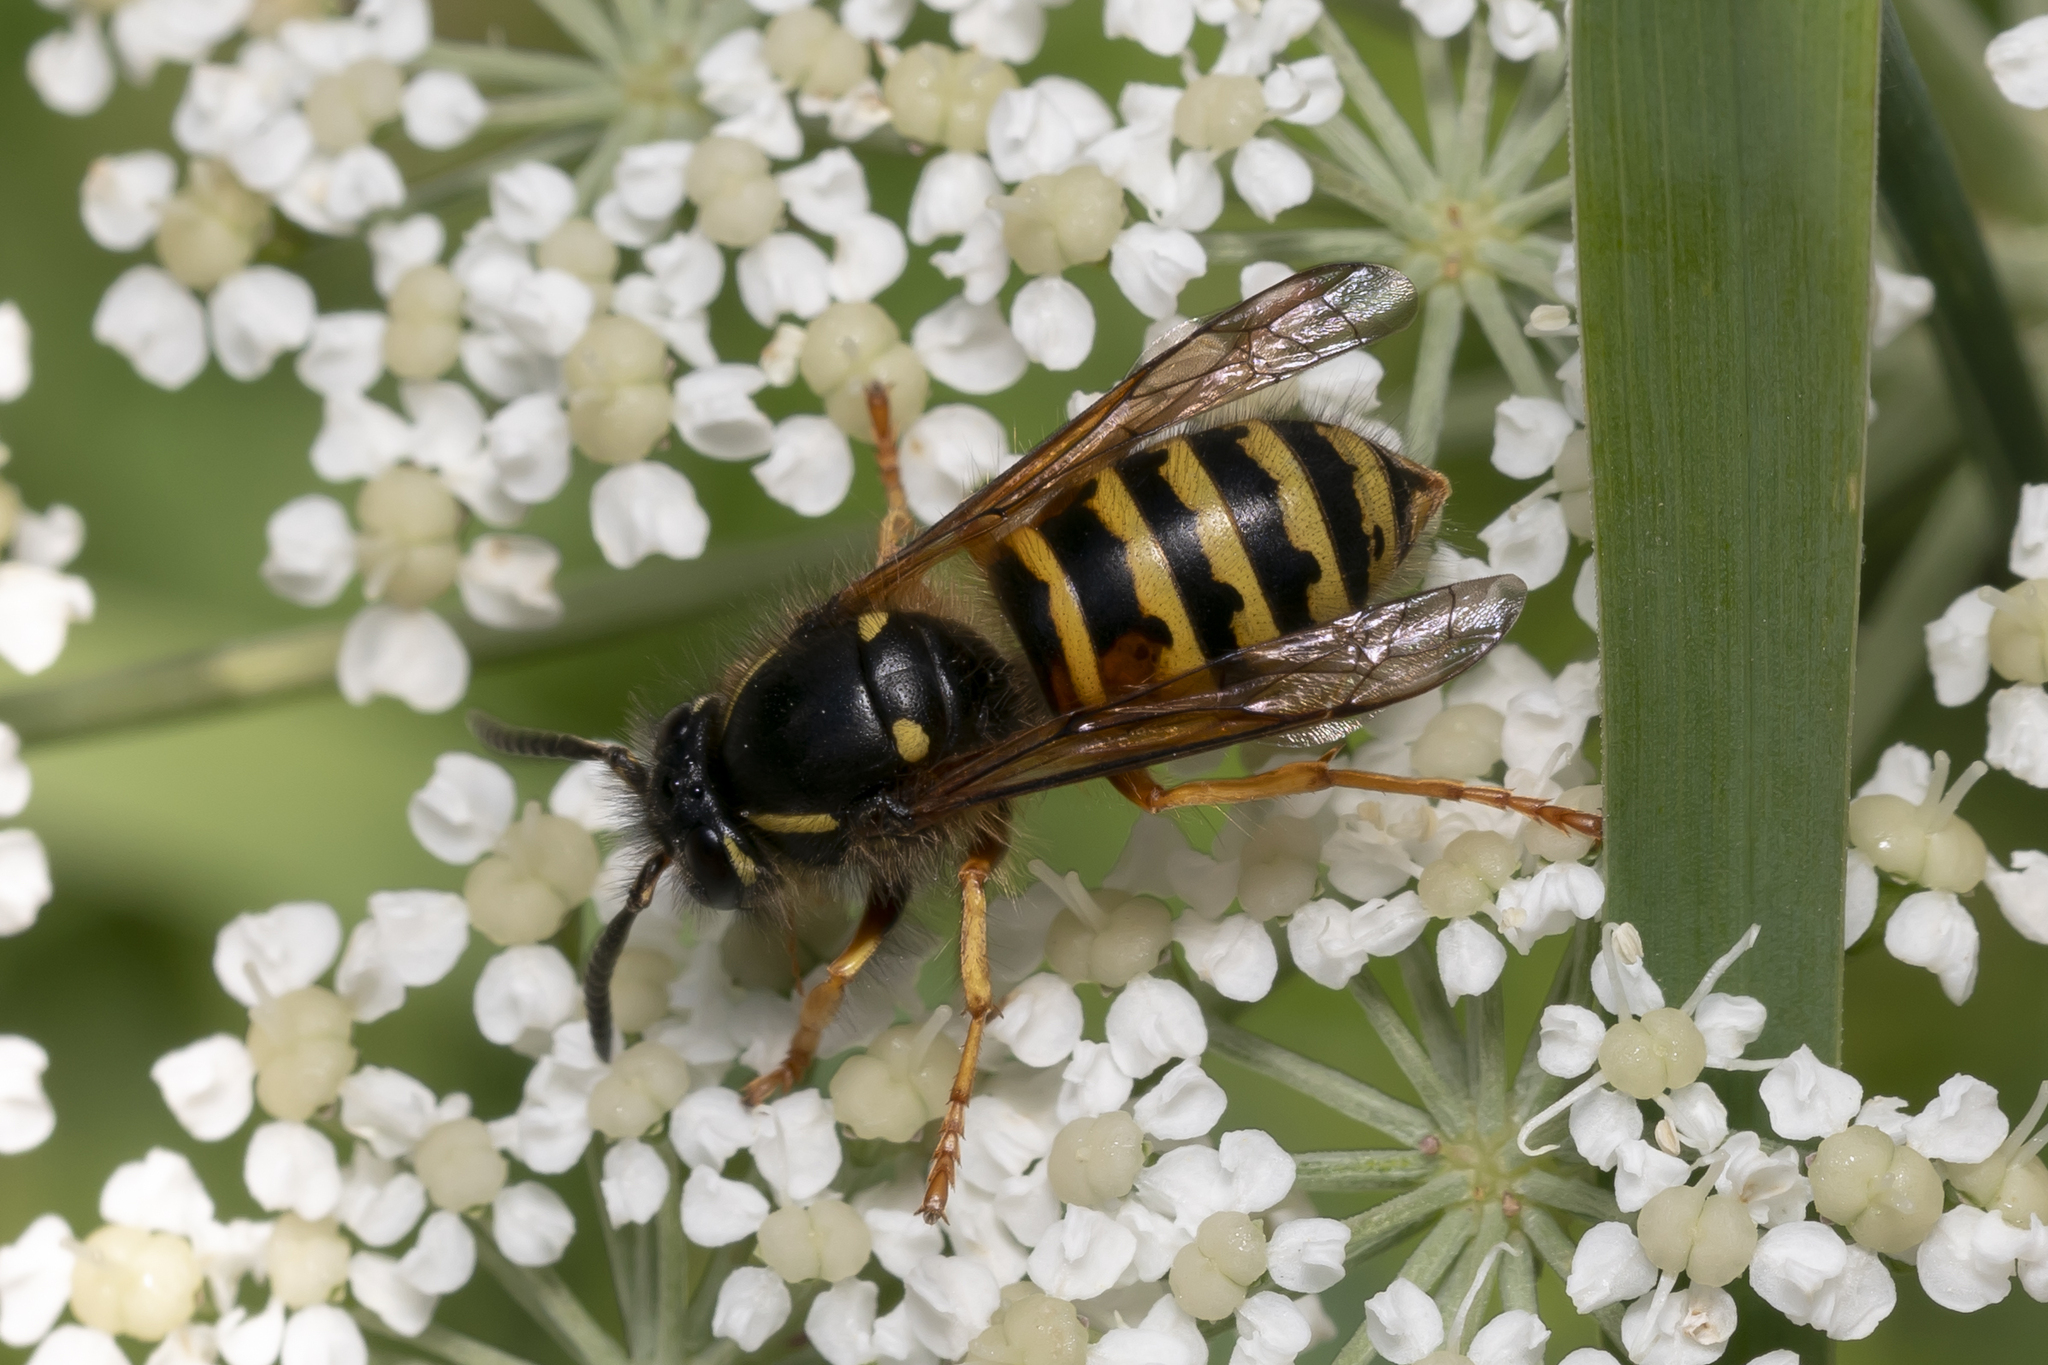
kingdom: Animalia
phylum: Arthropoda
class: Insecta
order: Hymenoptera
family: Vespidae
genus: Dolichovespula
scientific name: Dolichovespula norwegica
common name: Norwegian wasp
